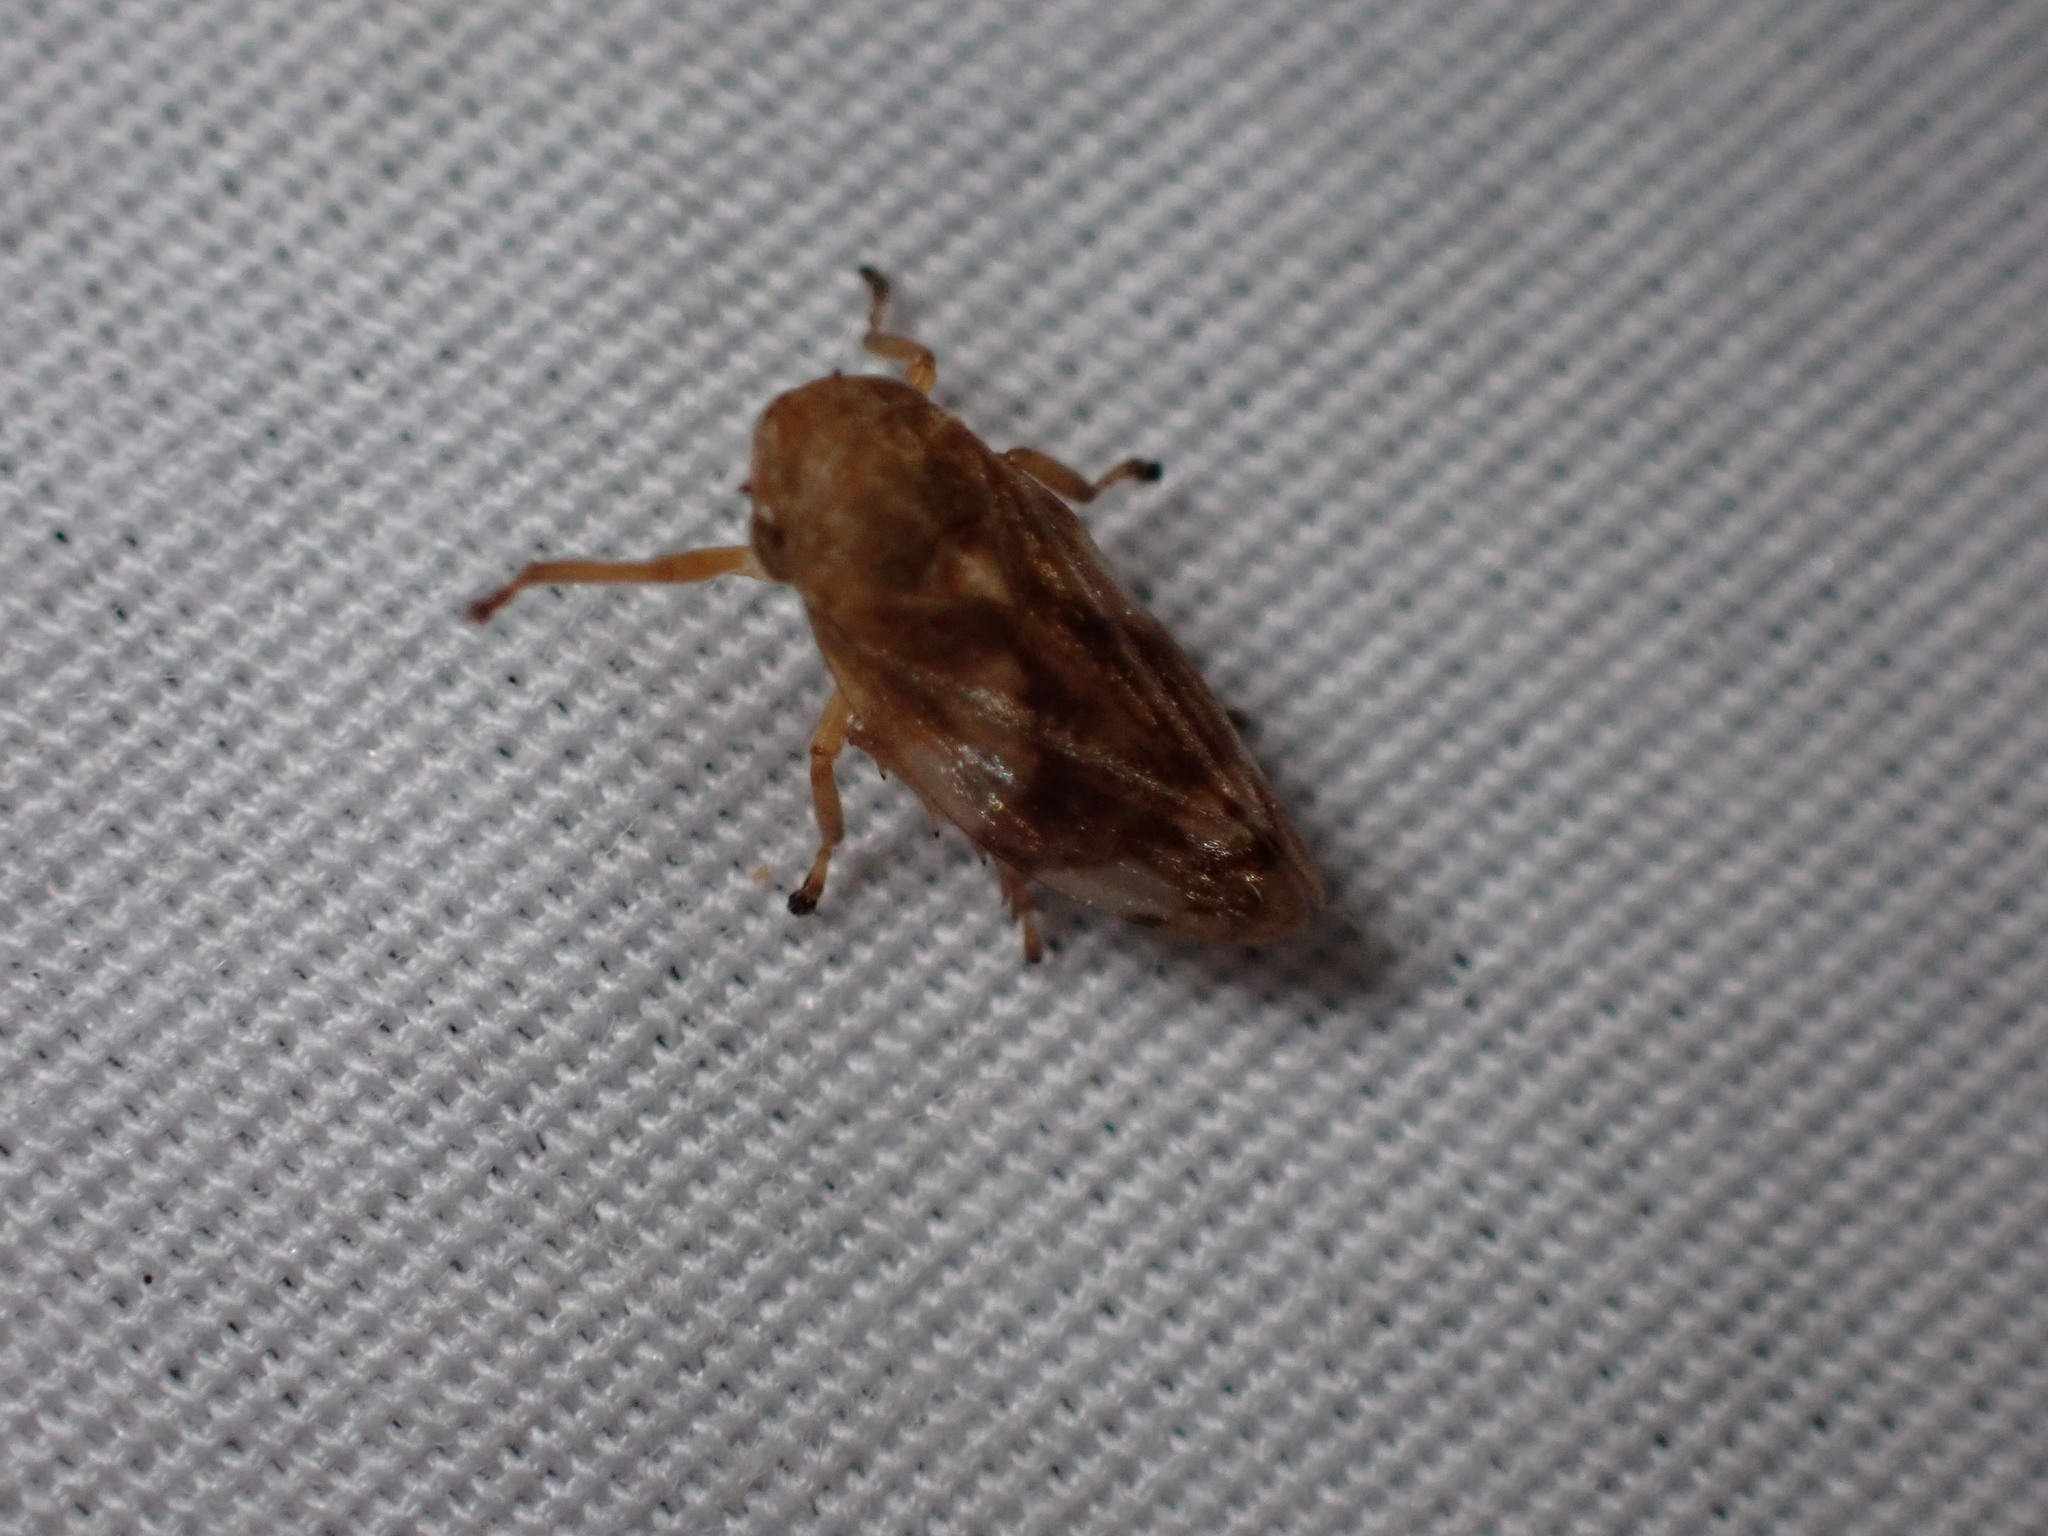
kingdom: Animalia
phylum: Arthropoda
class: Insecta
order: Hemiptera
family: Aphrophoridae
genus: Philaenus
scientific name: Philaenus spumarius
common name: Meadow spittlebug
